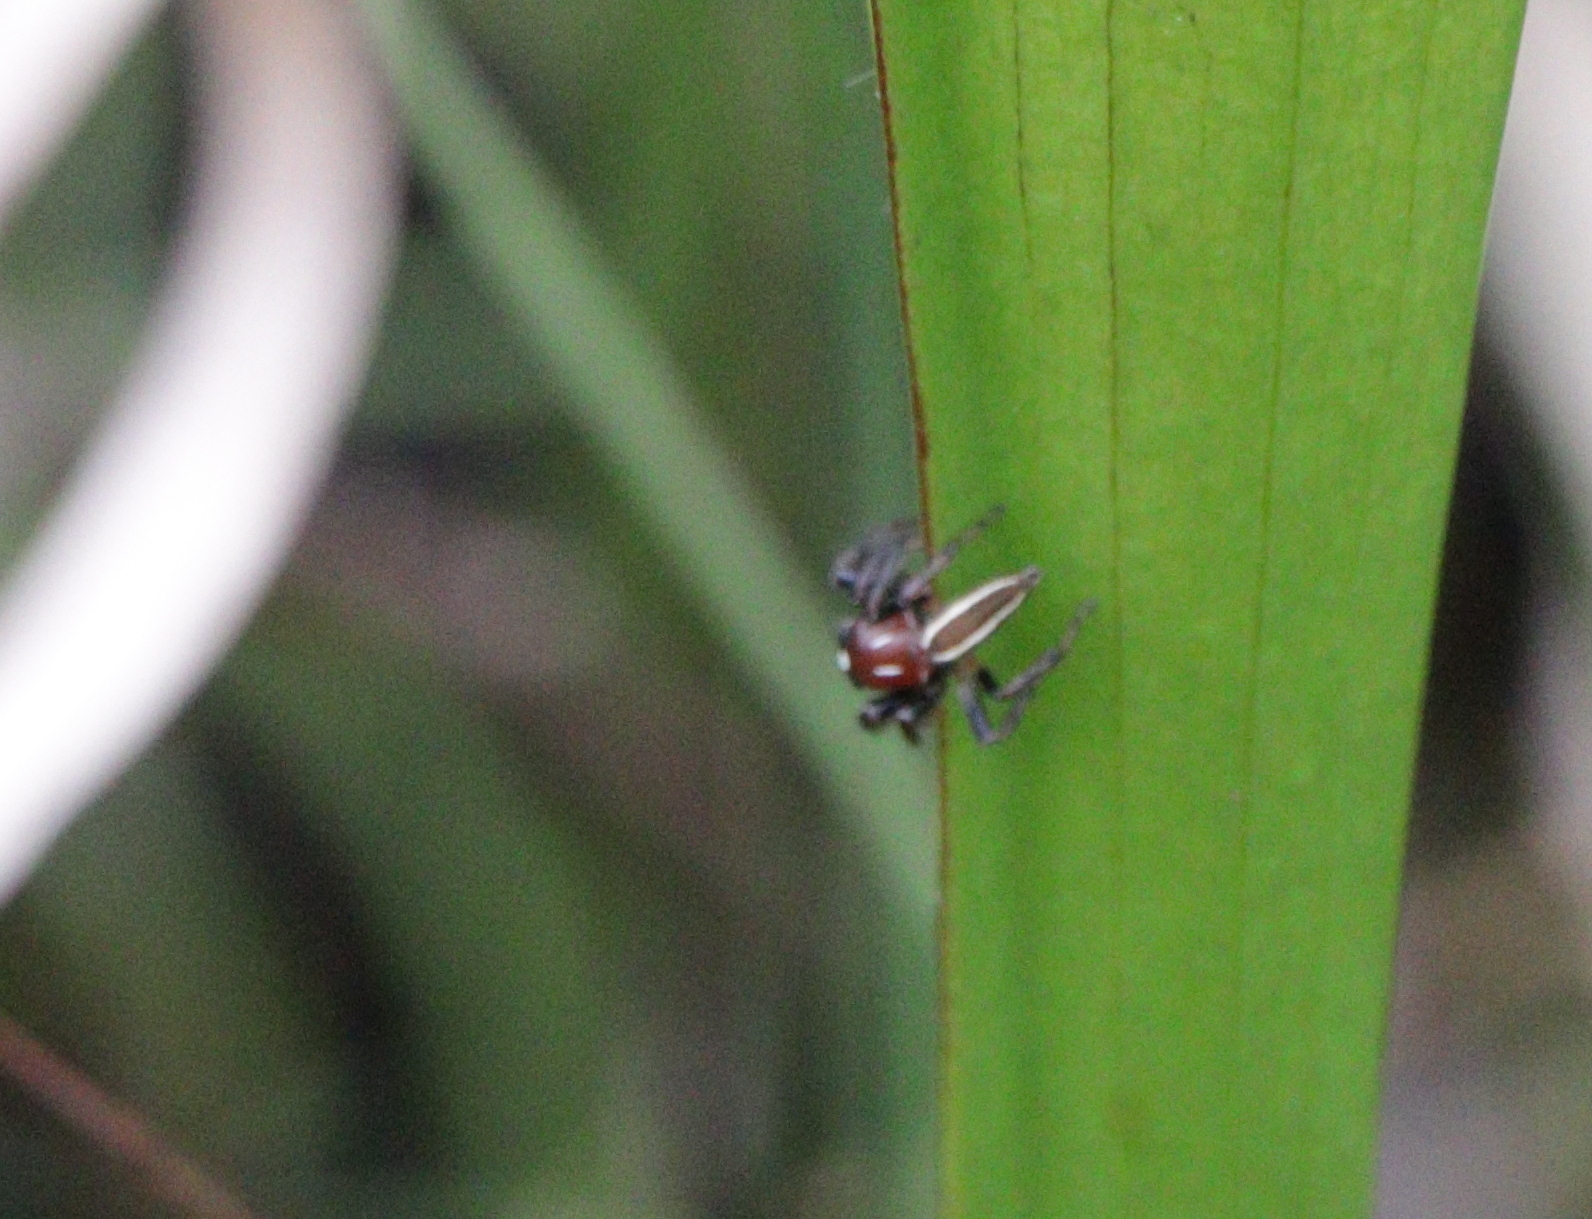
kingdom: Animalia
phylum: Arthropoda
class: Arachnida
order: Araneae
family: Salticidae
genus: Colonus
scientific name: Colonus sylvanus
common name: Jumping spiders
